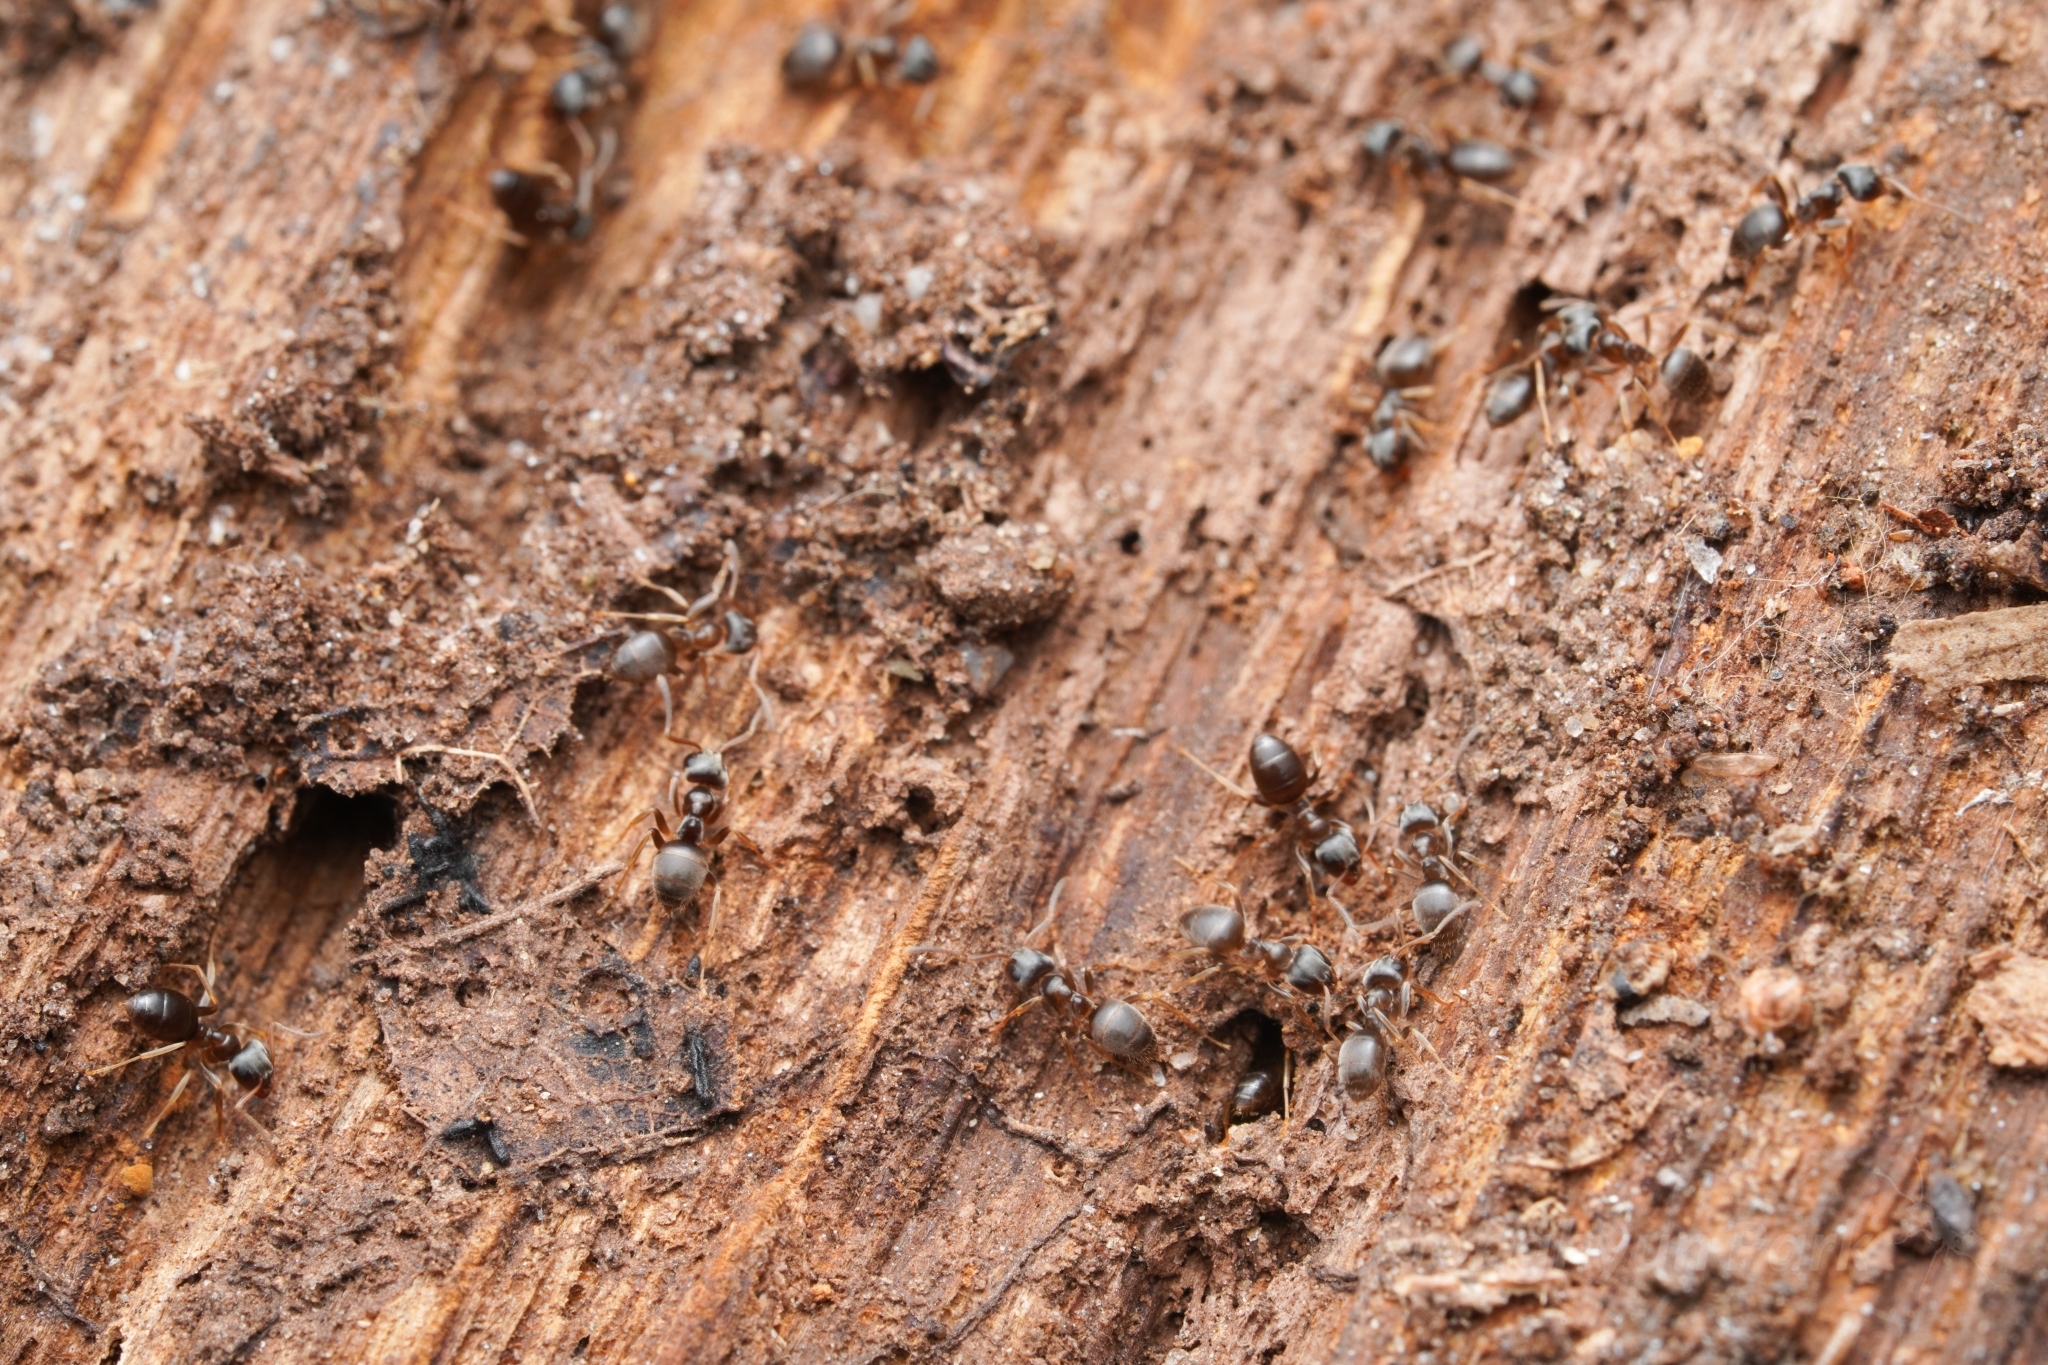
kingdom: Animalia
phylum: Arthropoda
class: Insecta
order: Hymenoptera
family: Formicidae
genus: Lasius
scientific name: Lasius americanus
